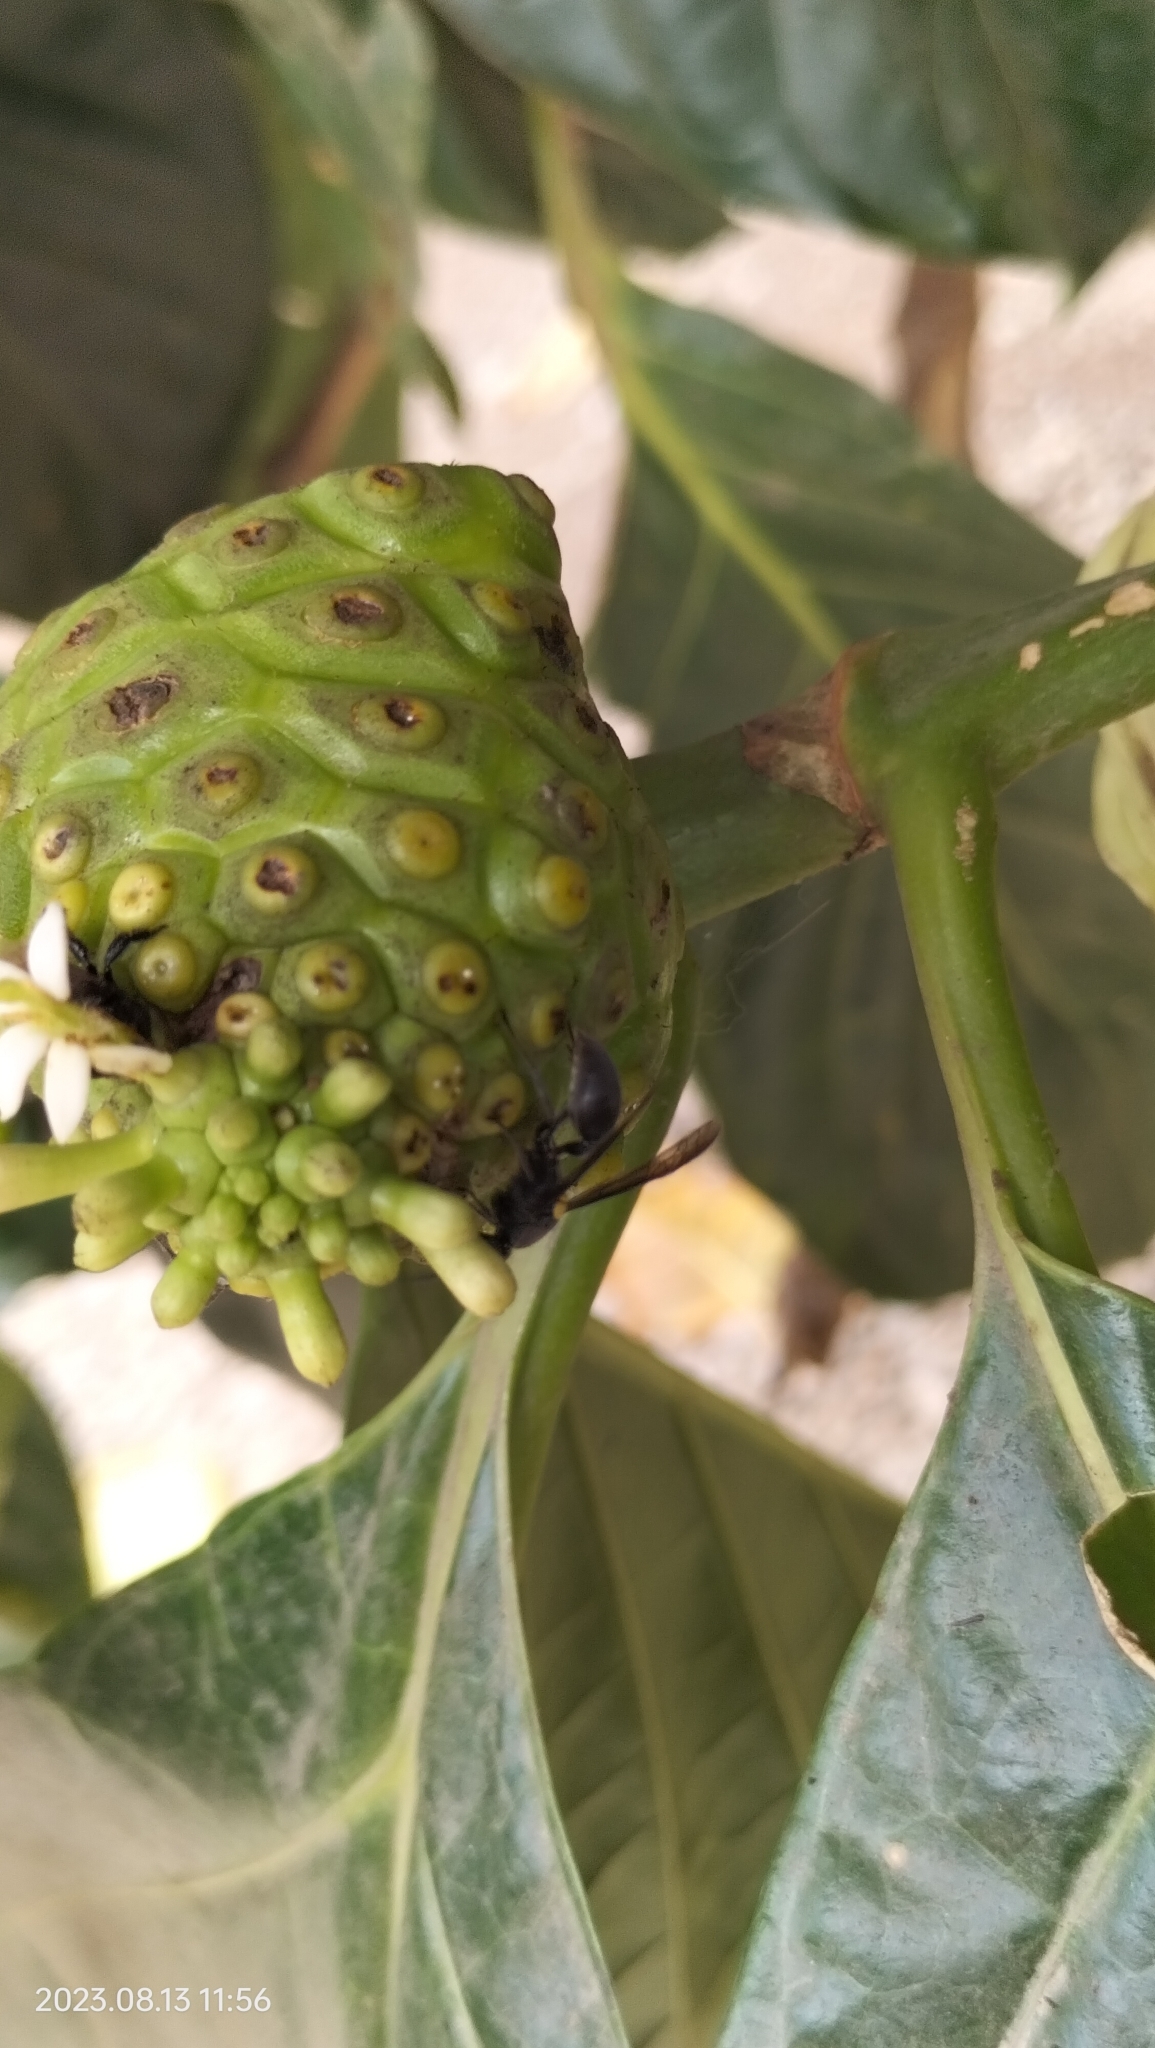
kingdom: Plantae
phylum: Tracheophyta
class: Magnoliopsida
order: Gentianales
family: Rubiaceae
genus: Morinda
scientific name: Morinda citrifolia
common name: Indian-mulberry
